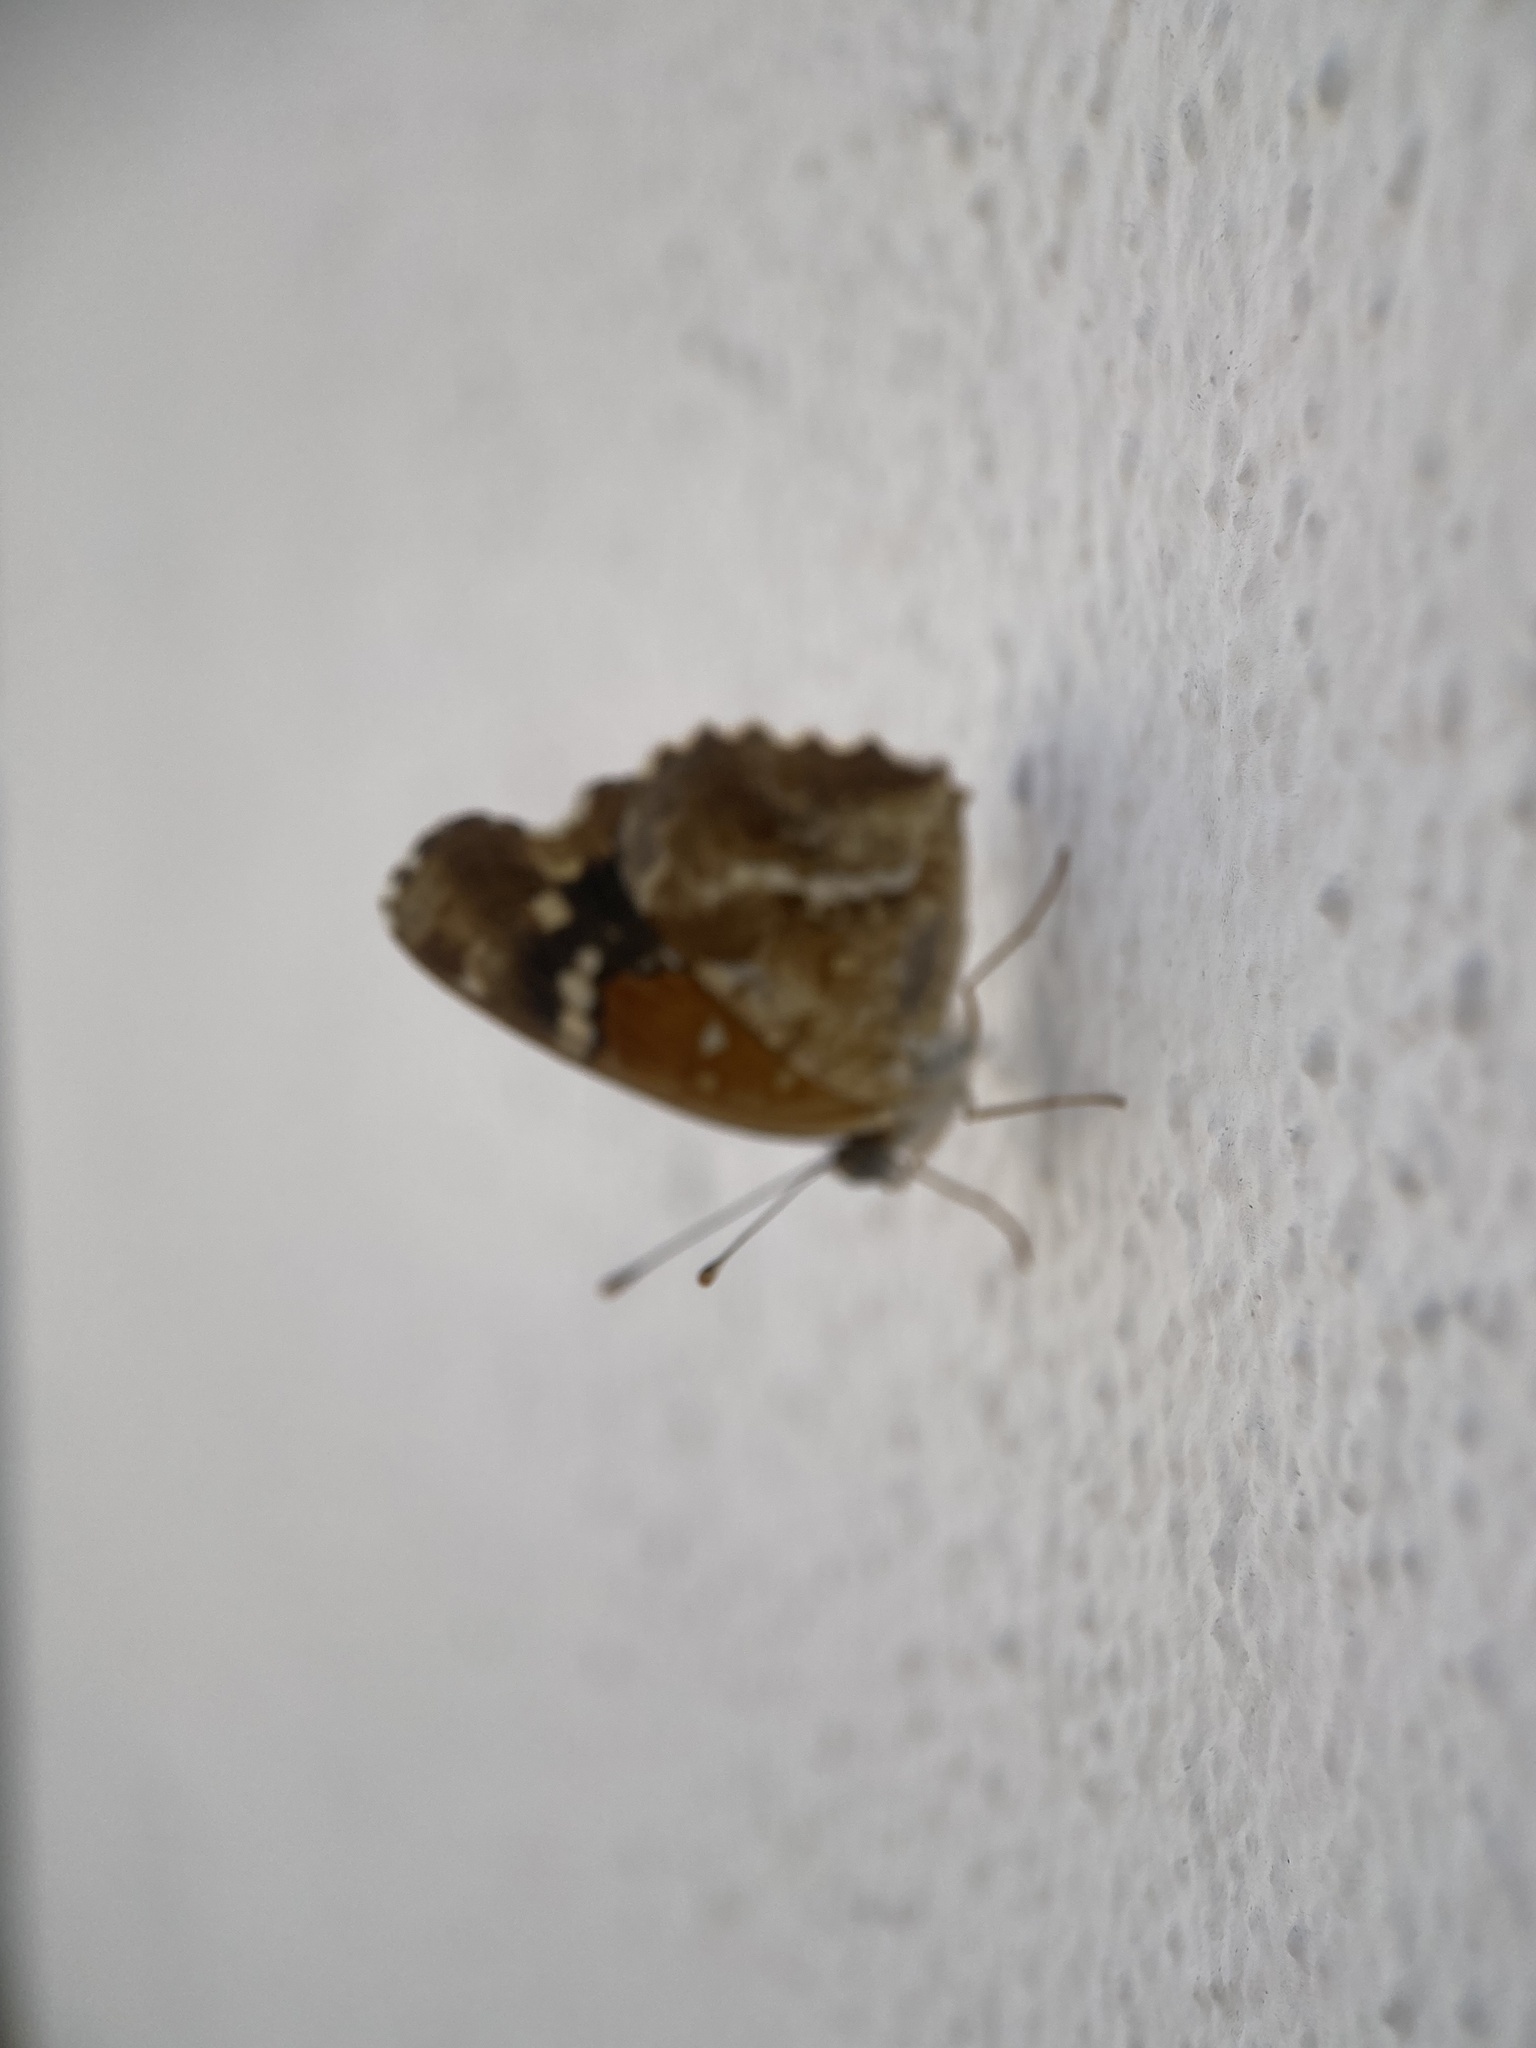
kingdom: Animalia
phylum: Arthropoda
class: Insecta
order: Lepidoptera
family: Nymphalidae
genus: Anthanassa
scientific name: Anthanassa texana
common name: Texan crescent
